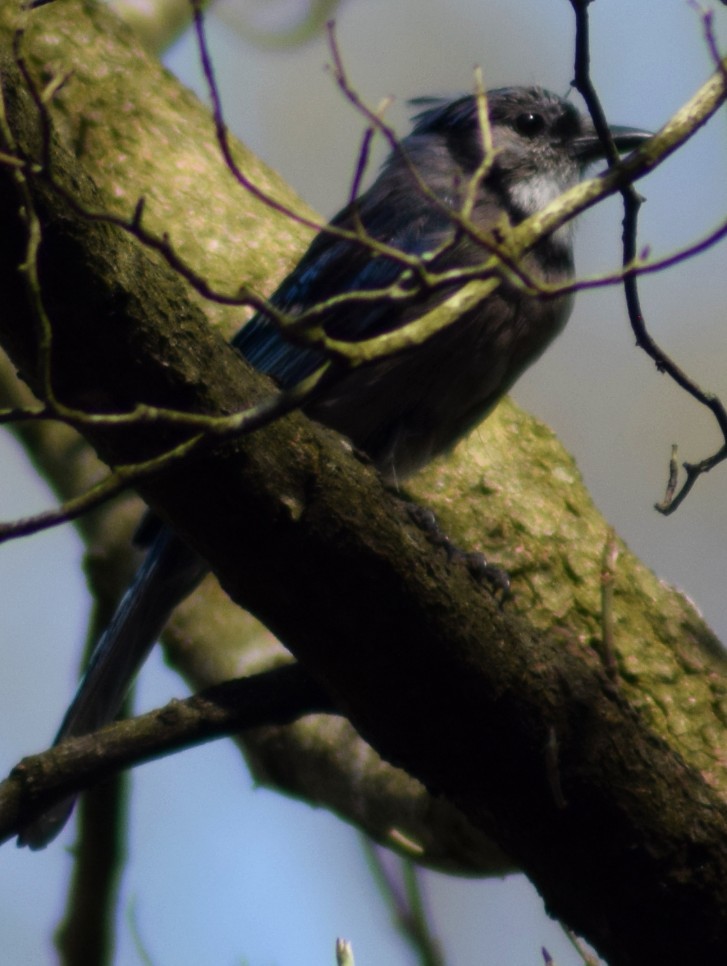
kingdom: Animalia
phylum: Chordata
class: Aves
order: Passeriformes
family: Corvidae
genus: Cyanocitta
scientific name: Cyanocitta cristata
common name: Blue jay
